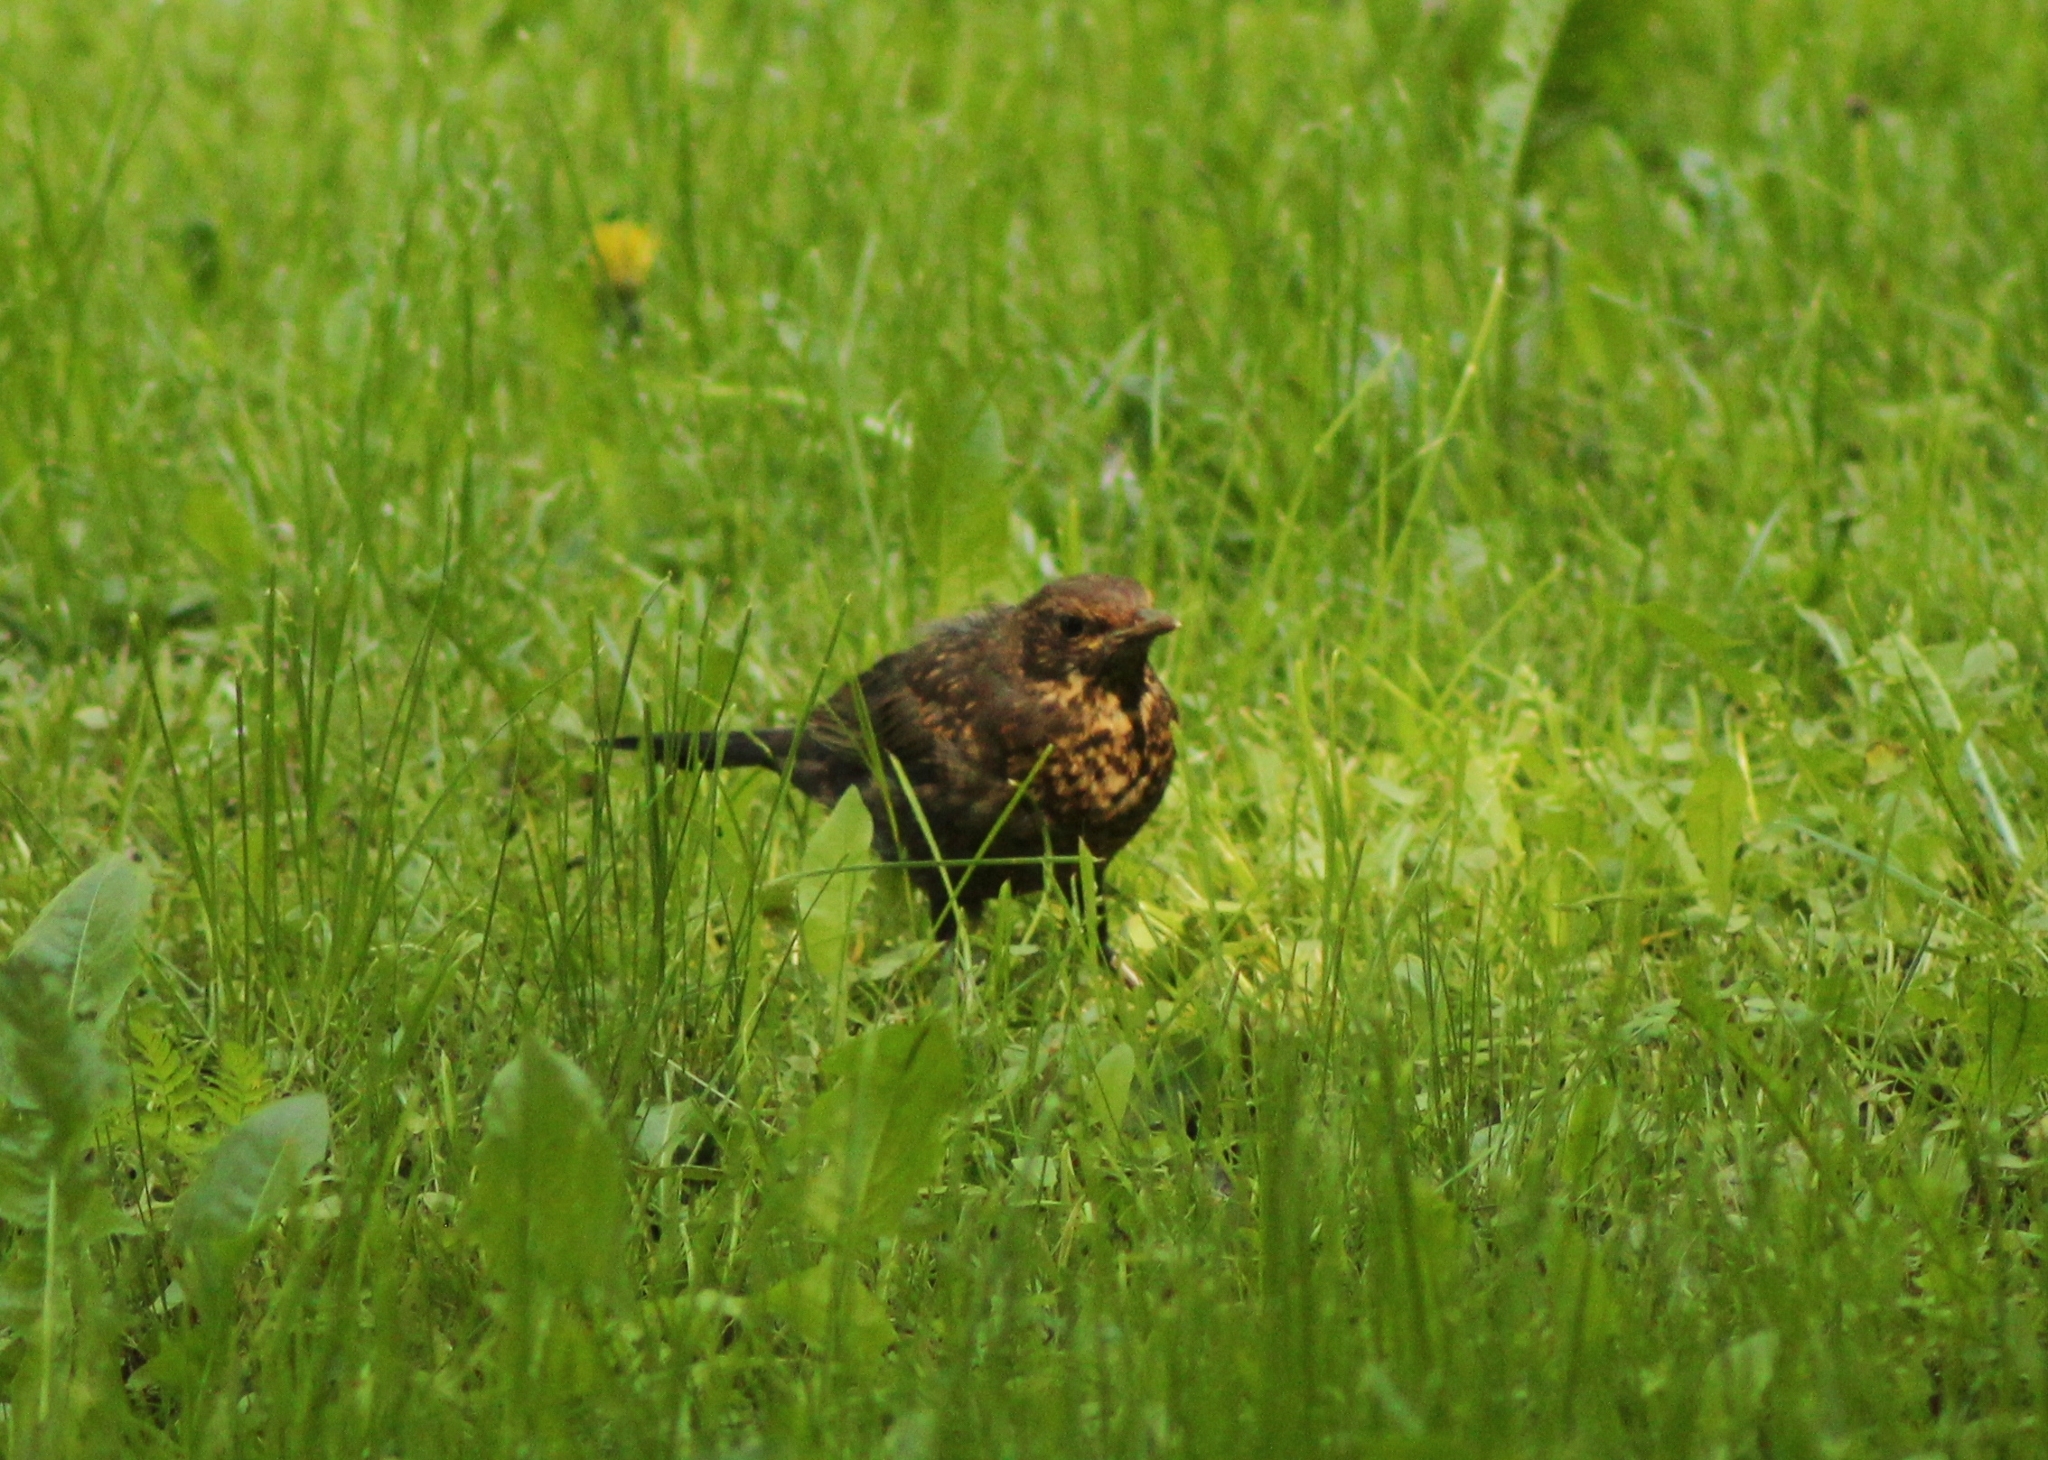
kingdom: Animalia
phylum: Chordata
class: Aves
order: Passeriformes
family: Turdidae
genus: Turdus
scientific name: Turdus merula
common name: Common blackbird
